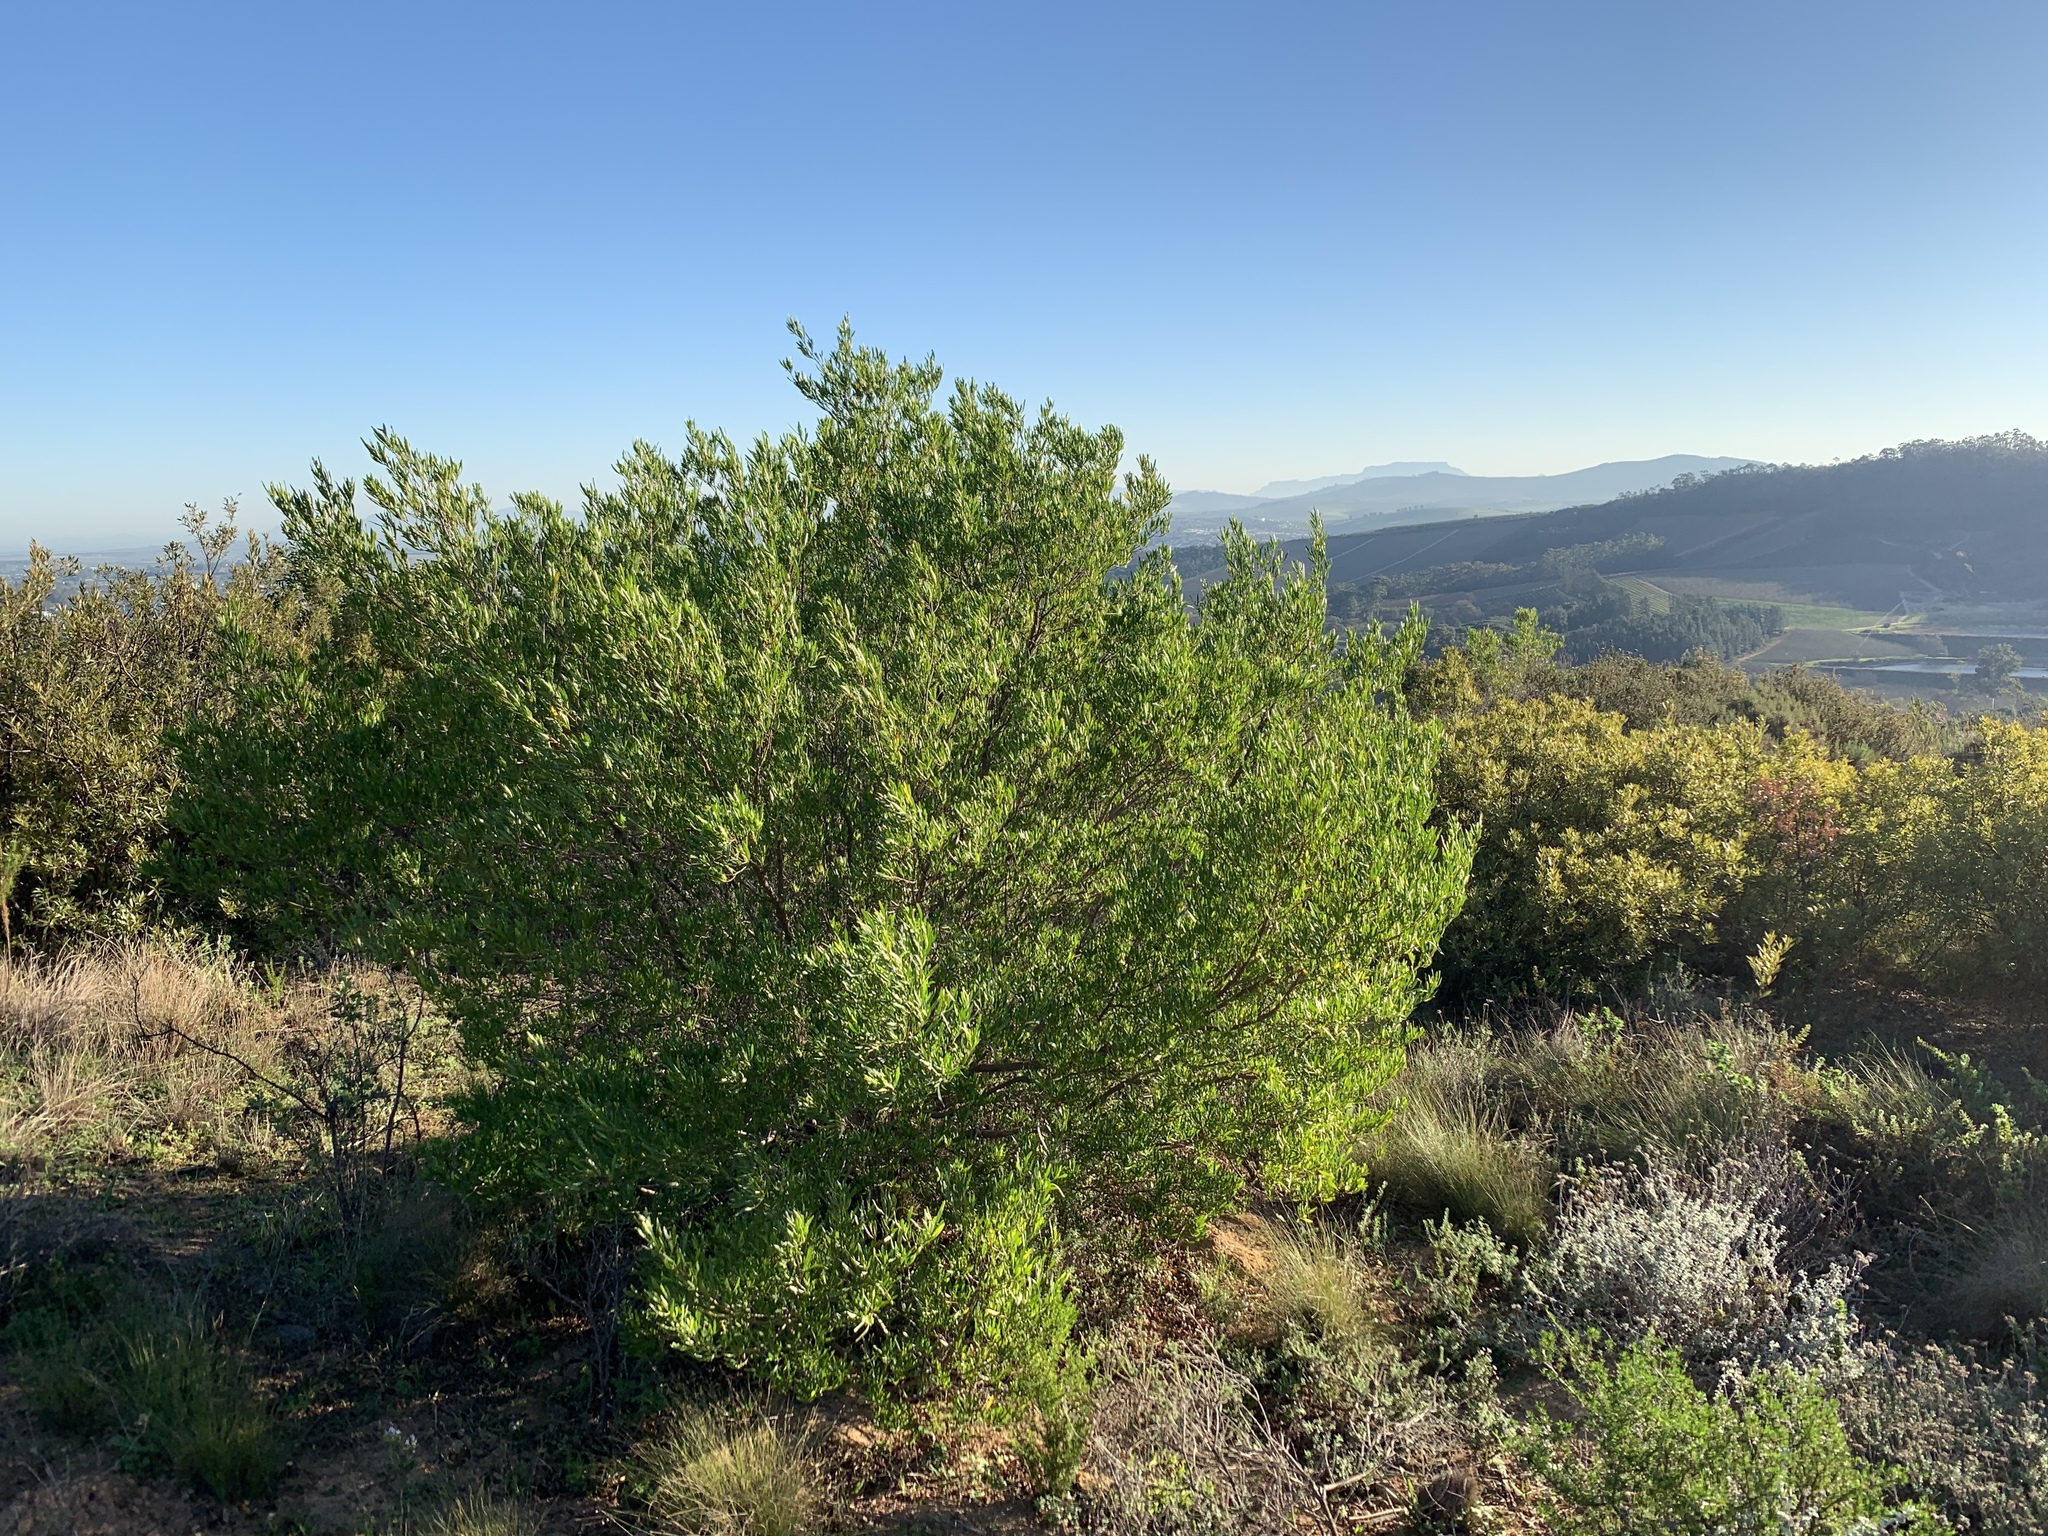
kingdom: Plantae
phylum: Tracheophyta
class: Magnoliopsida
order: Sapindales
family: Sapindaceae
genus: Dodonaea
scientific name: Dodonaea viscosa
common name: Hopbush
